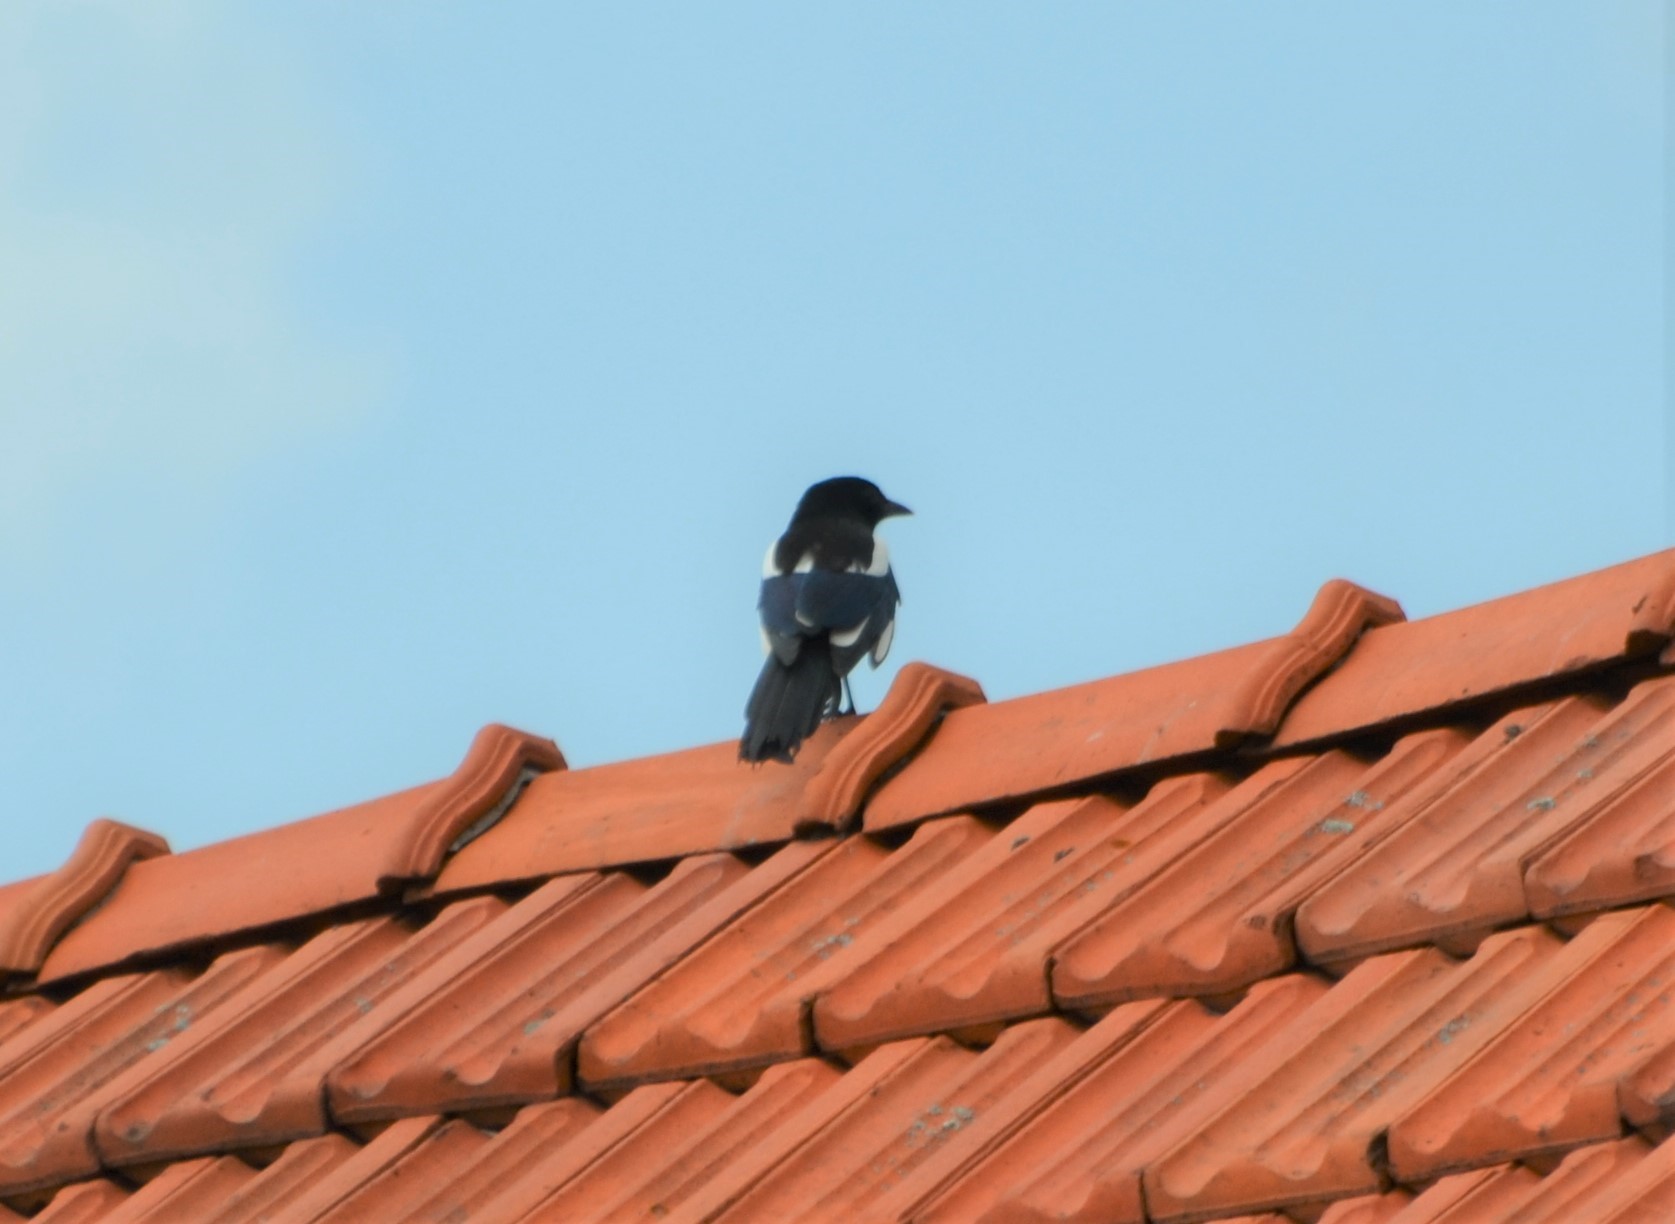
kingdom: Animalia
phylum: Chordata
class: Aves
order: Passeriformes
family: Corvidae
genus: Pica
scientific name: Pica pica
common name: Eurasian magpie
